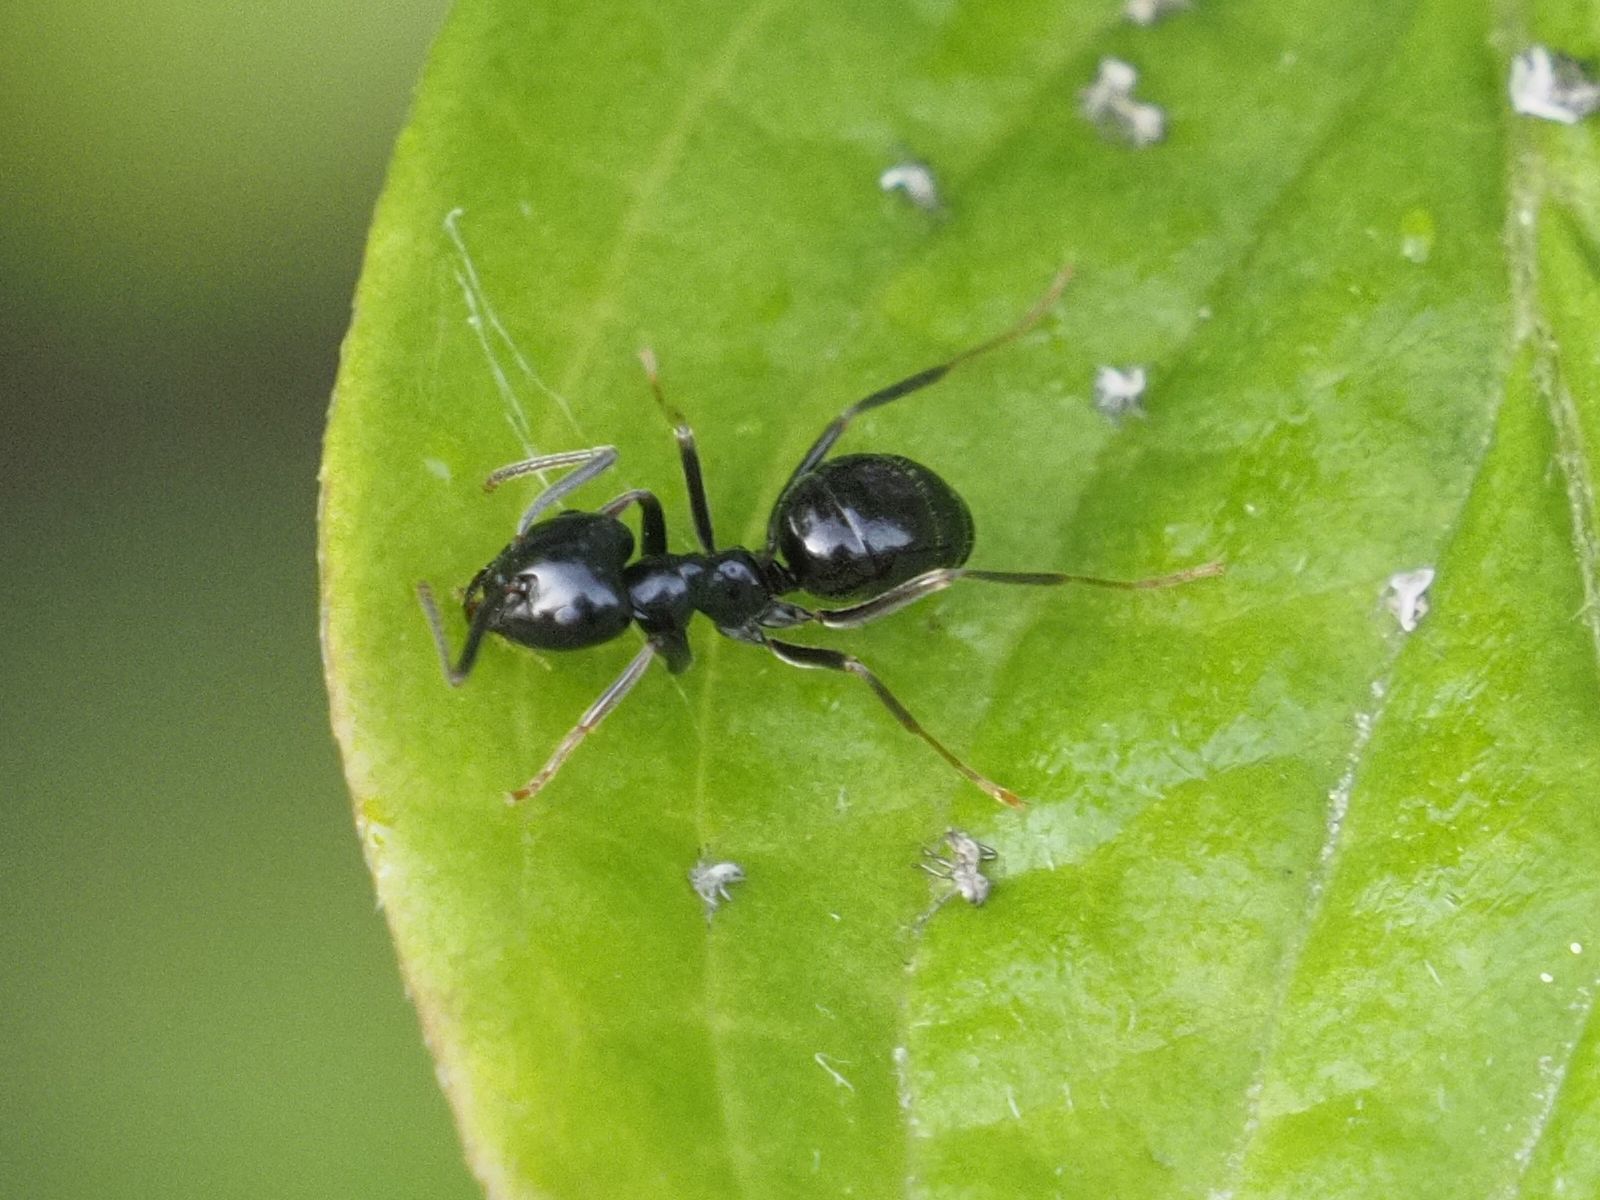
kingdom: Animalia
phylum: Arthropoda
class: Insecta
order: Hymenoptera
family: Formicidae
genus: Lasius
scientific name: Lasius fuliginosus
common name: Jet ant
